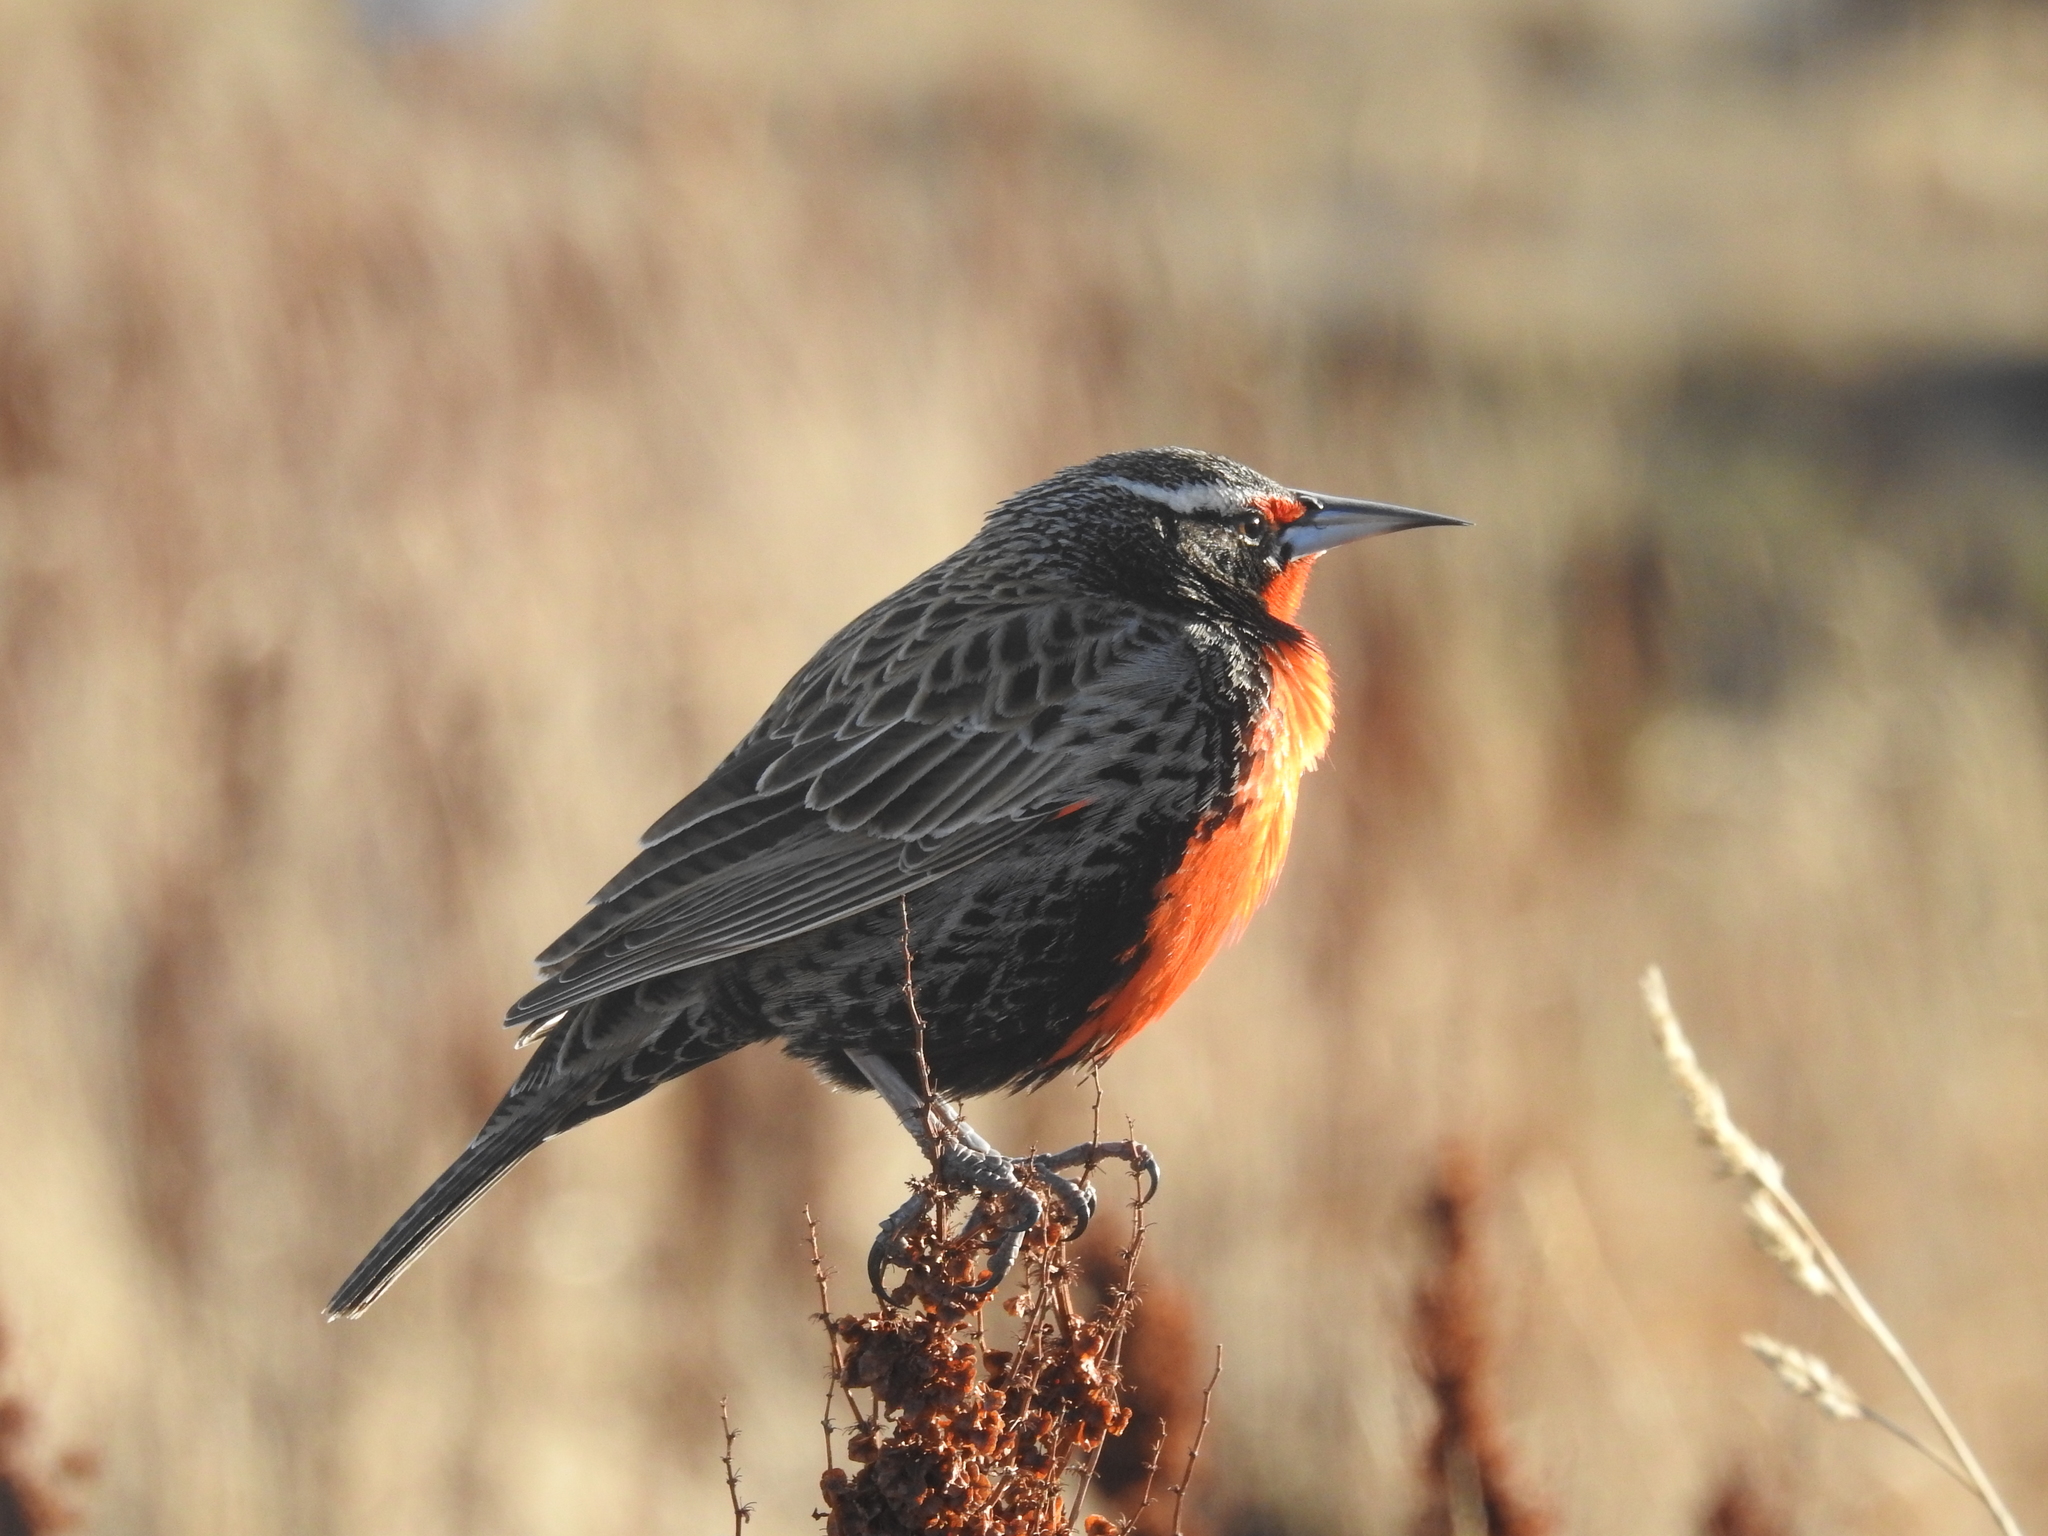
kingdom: Animalia
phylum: Chordata
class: Aves
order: Passeriformes
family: Icteridae
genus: Sturnella
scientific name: Sturnella loyca
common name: Long-tailed meadowlark
